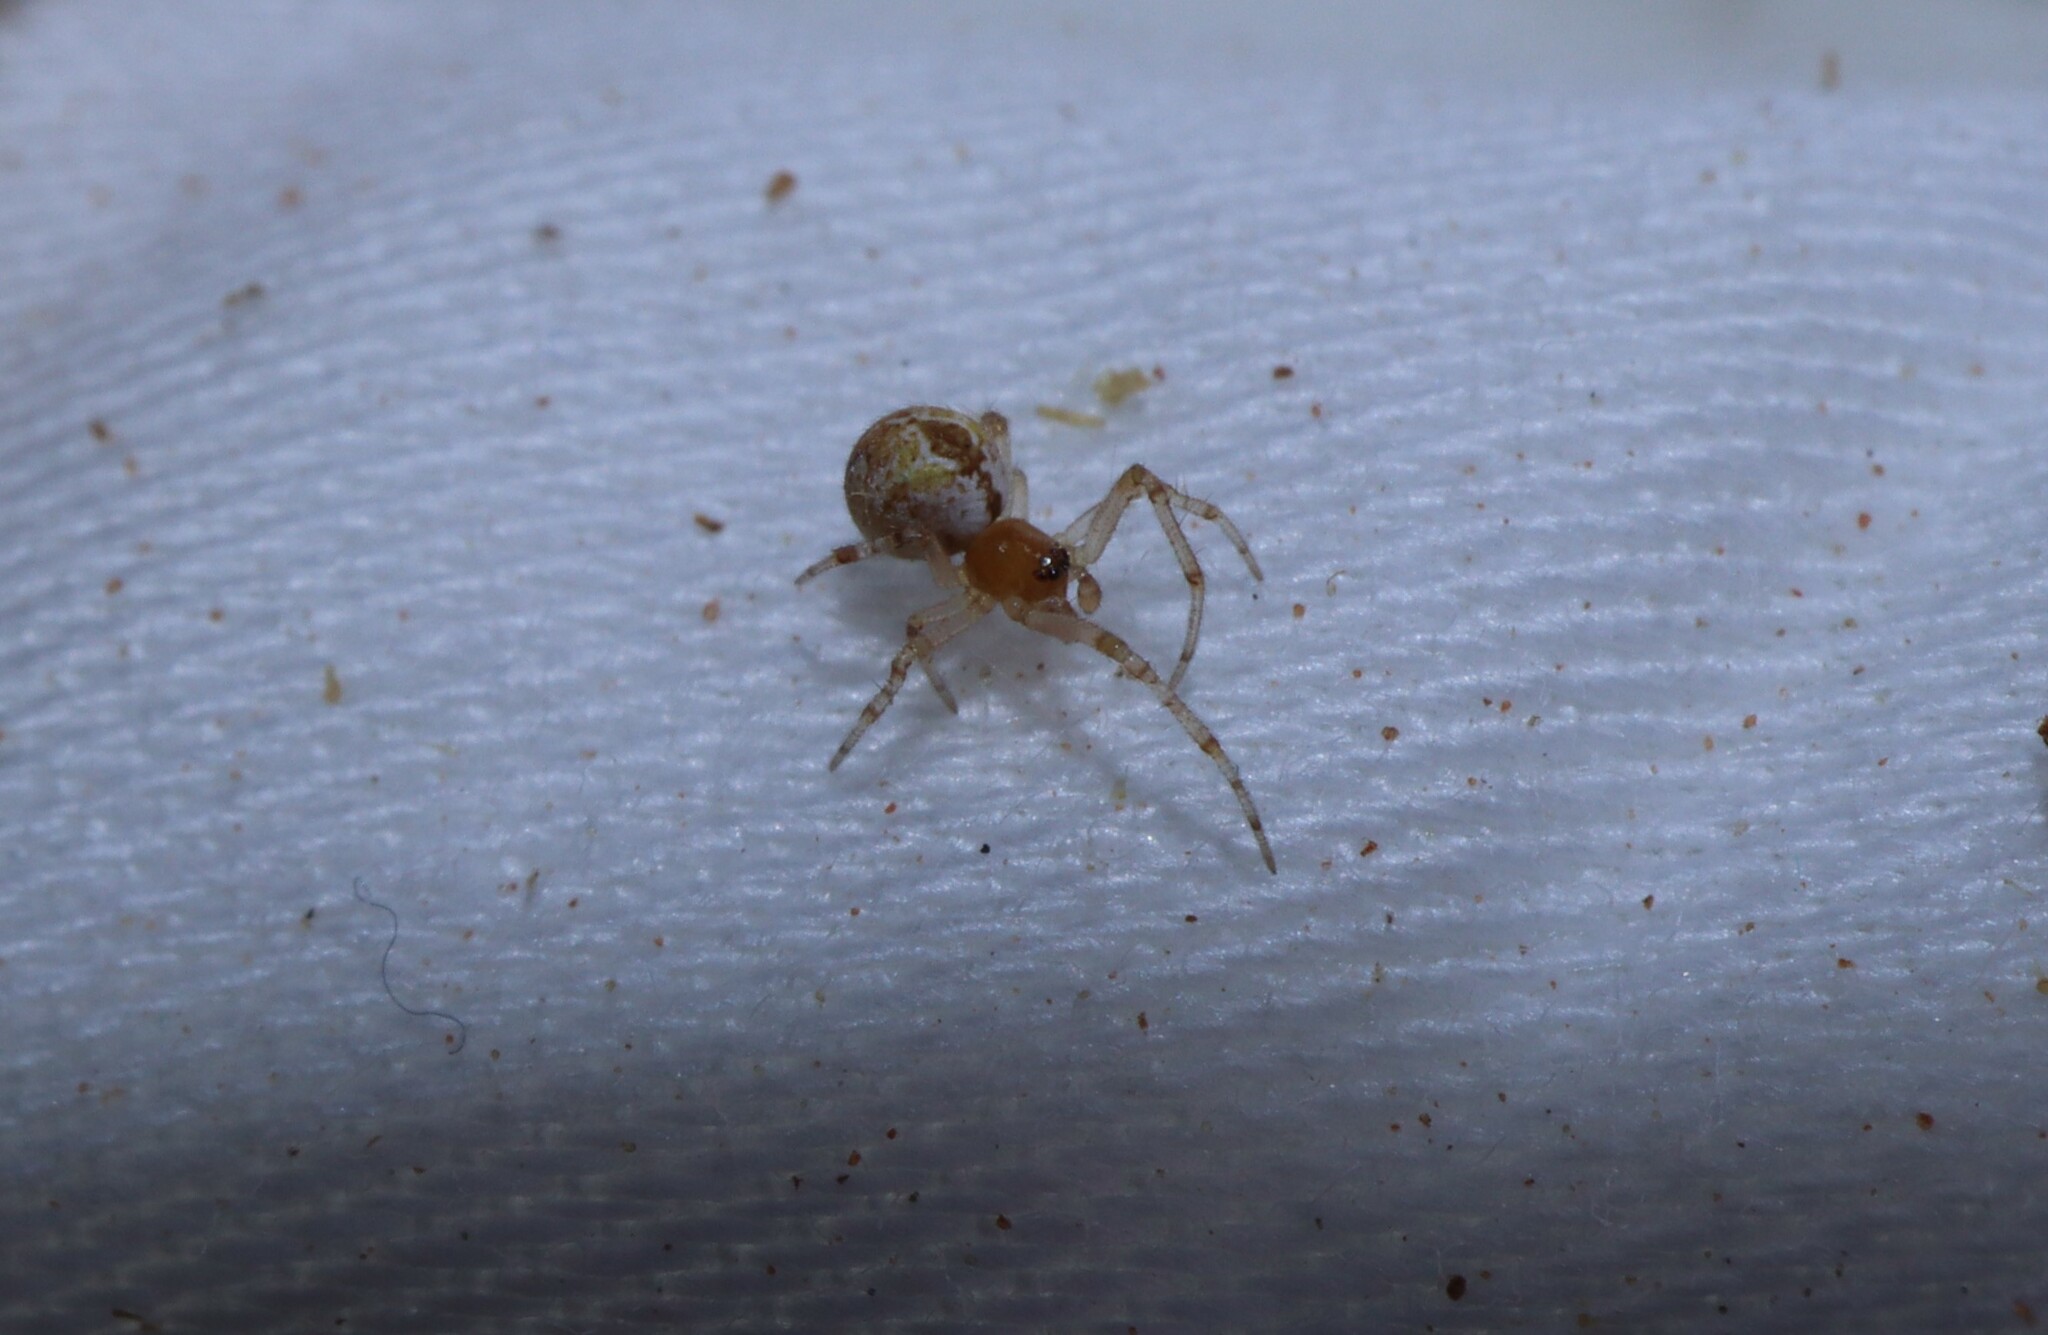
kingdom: Animalia
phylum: Arthropoda
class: Arachnida
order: Araneae
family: Theridiidae
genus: Cryptachaea
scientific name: Cryptachaea veruculata
